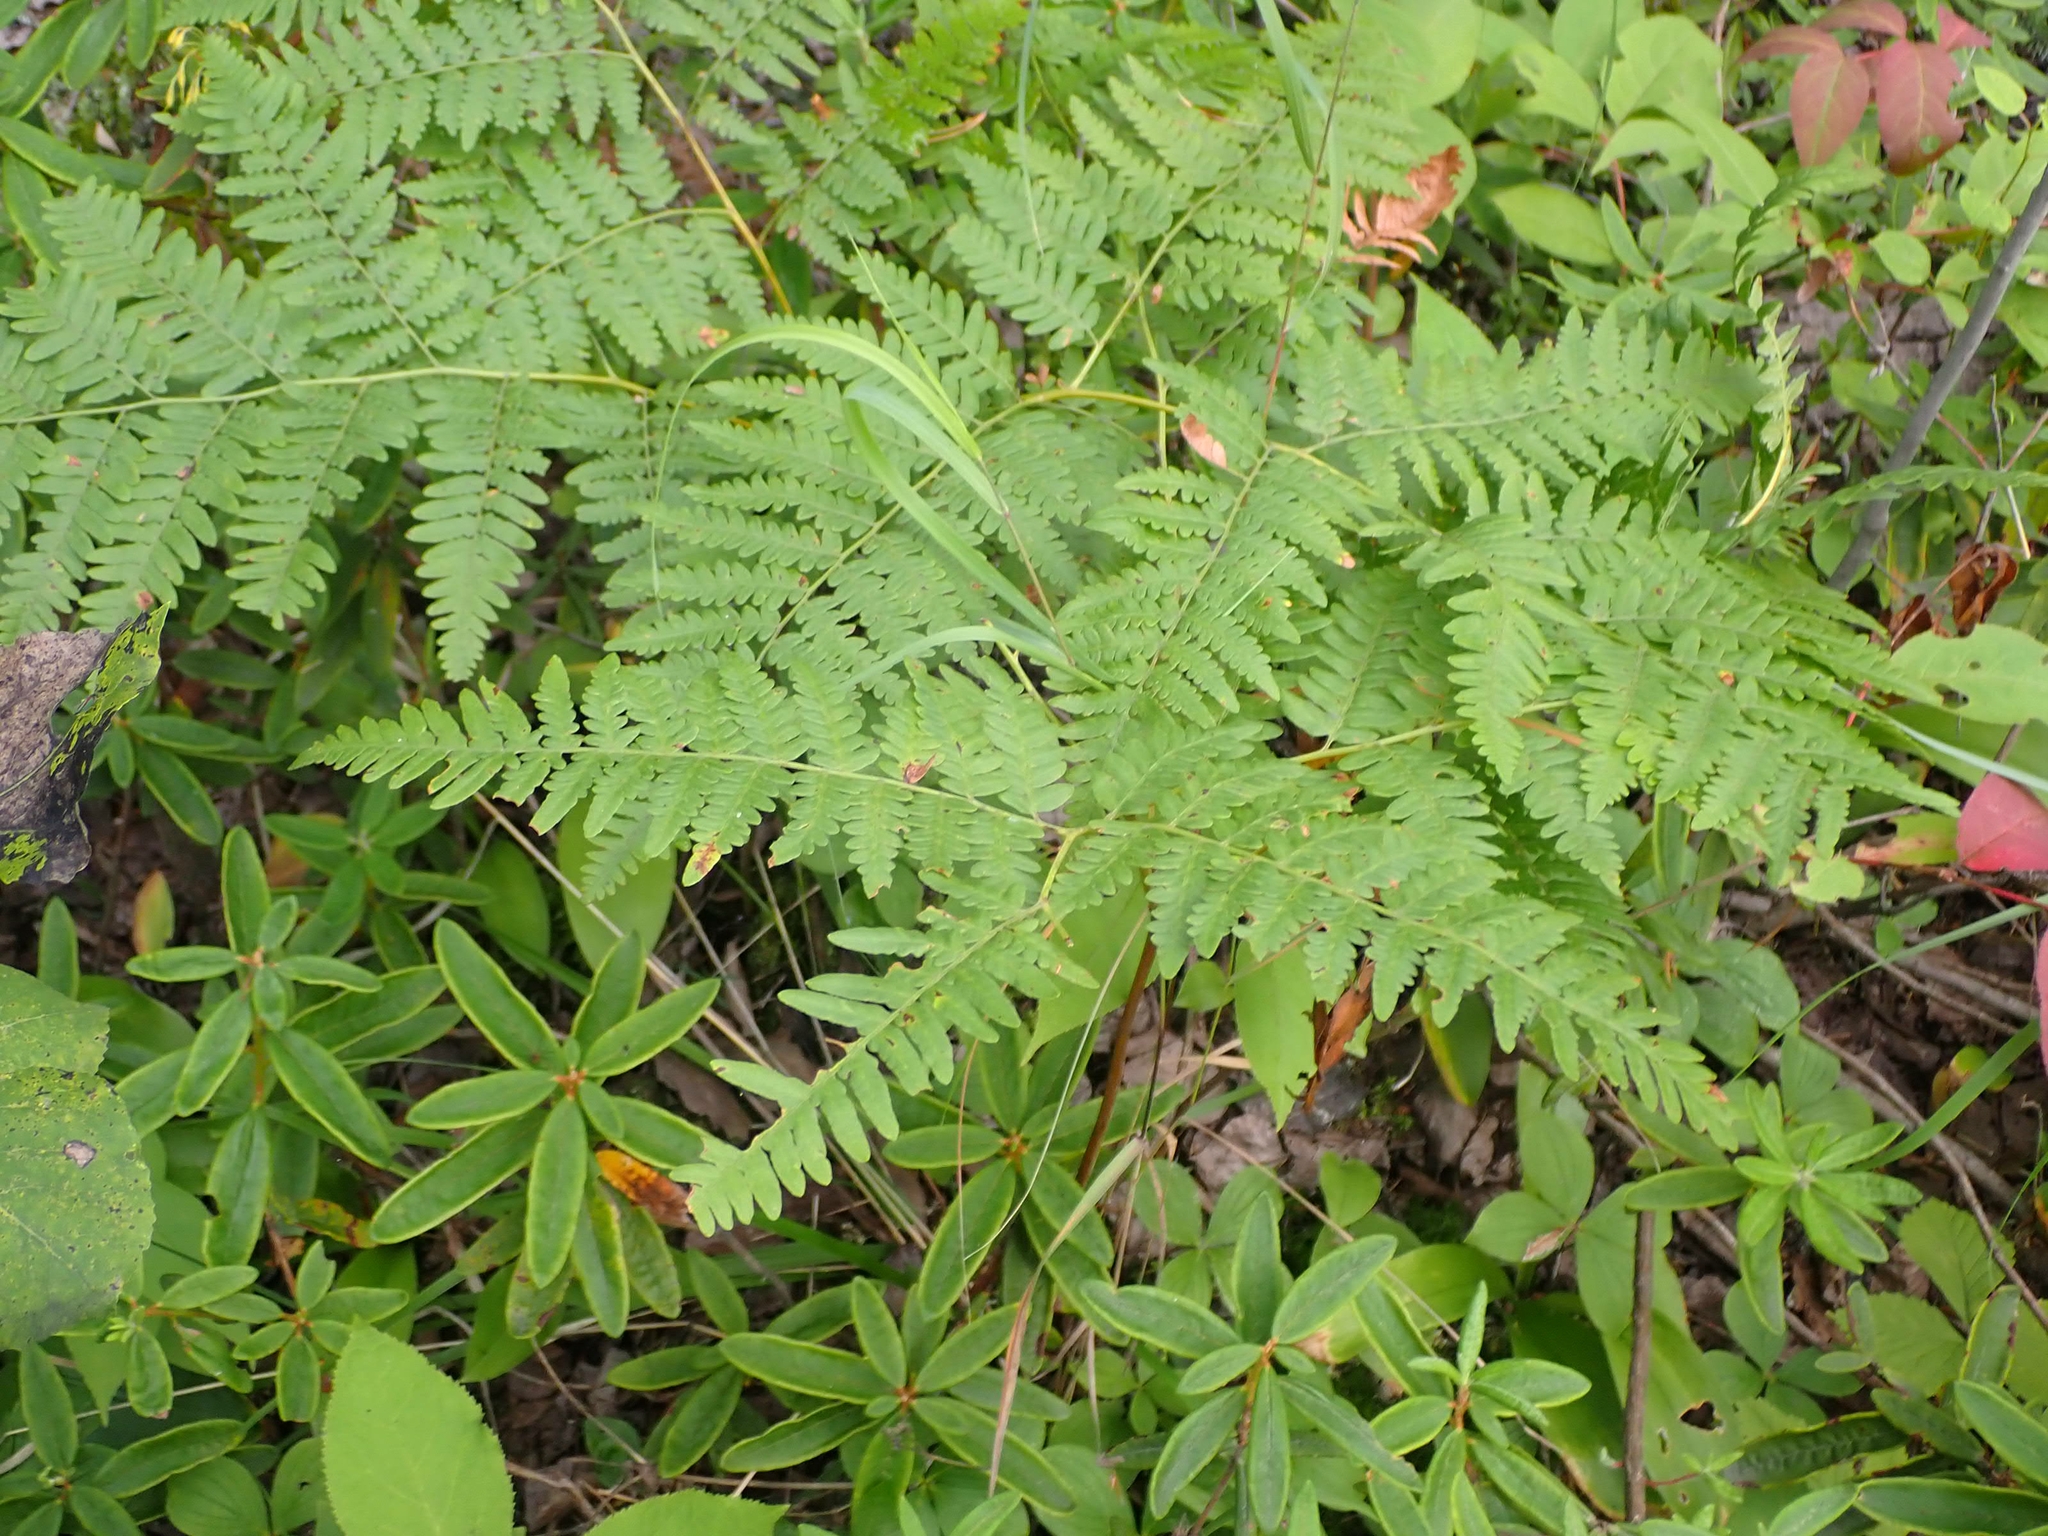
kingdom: Plantae
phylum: Tracheophyta
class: Polypodiopsida
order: Polypodiales
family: Dennstaedtiaceae
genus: Pteridium
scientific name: Pteridium aquilinum
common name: Bracken
